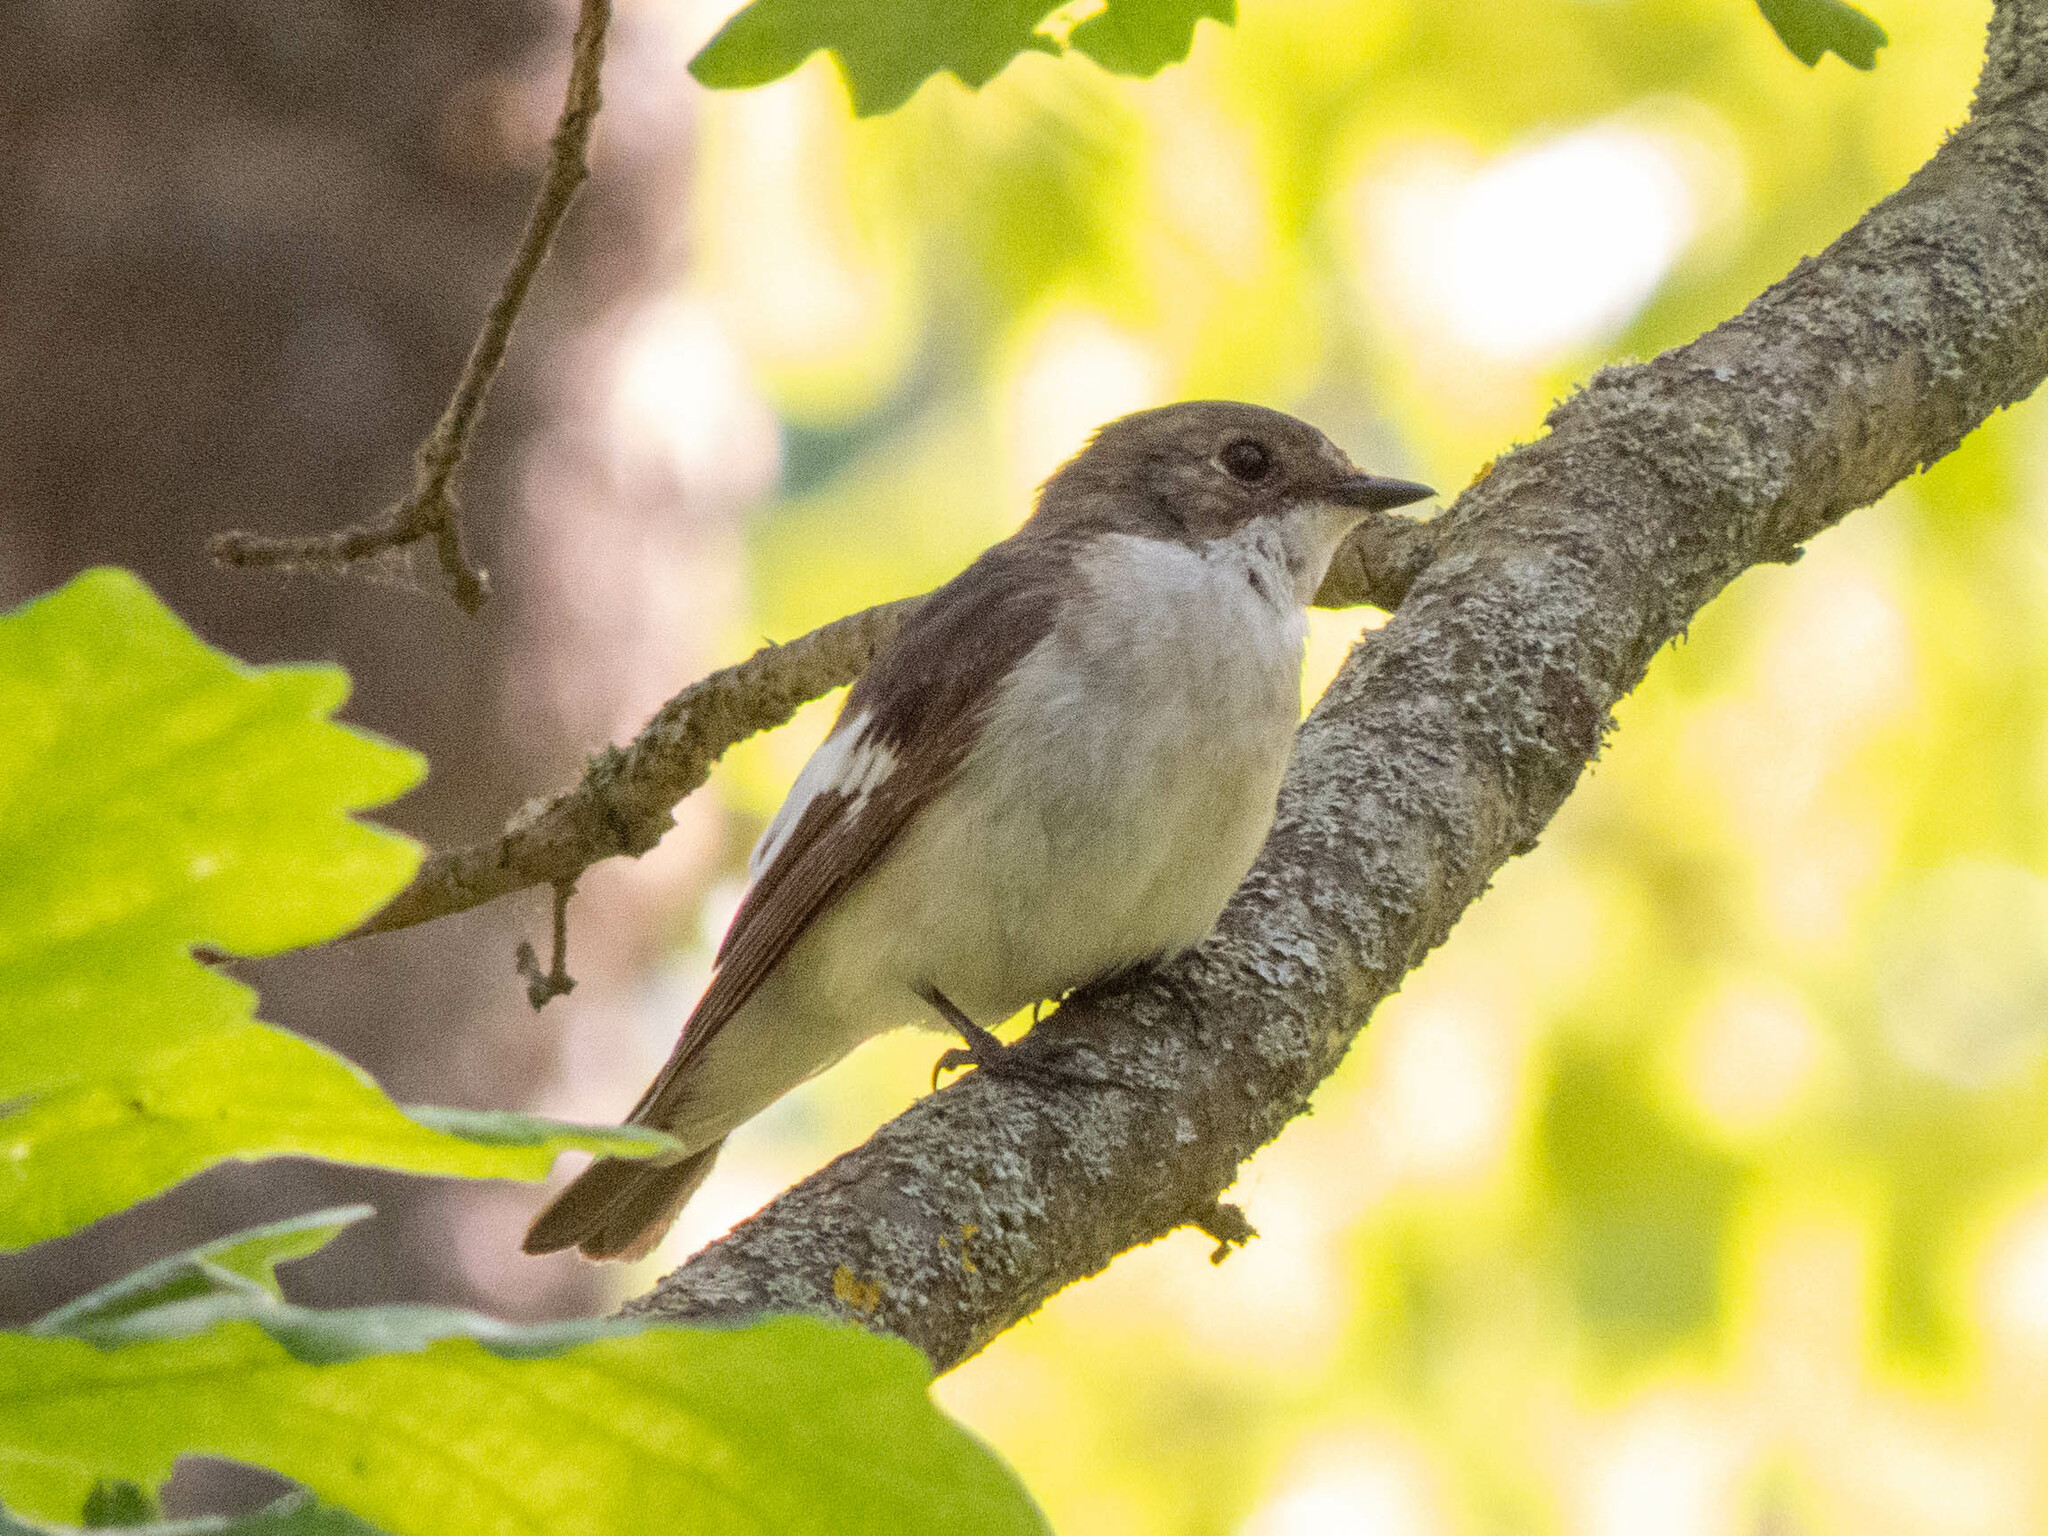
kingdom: Animalia
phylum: Chordata
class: Aves
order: Passeriformes
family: Muscicapidae
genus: Ficedula
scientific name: Ficedula hypoleuca
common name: European pied flycatcher
